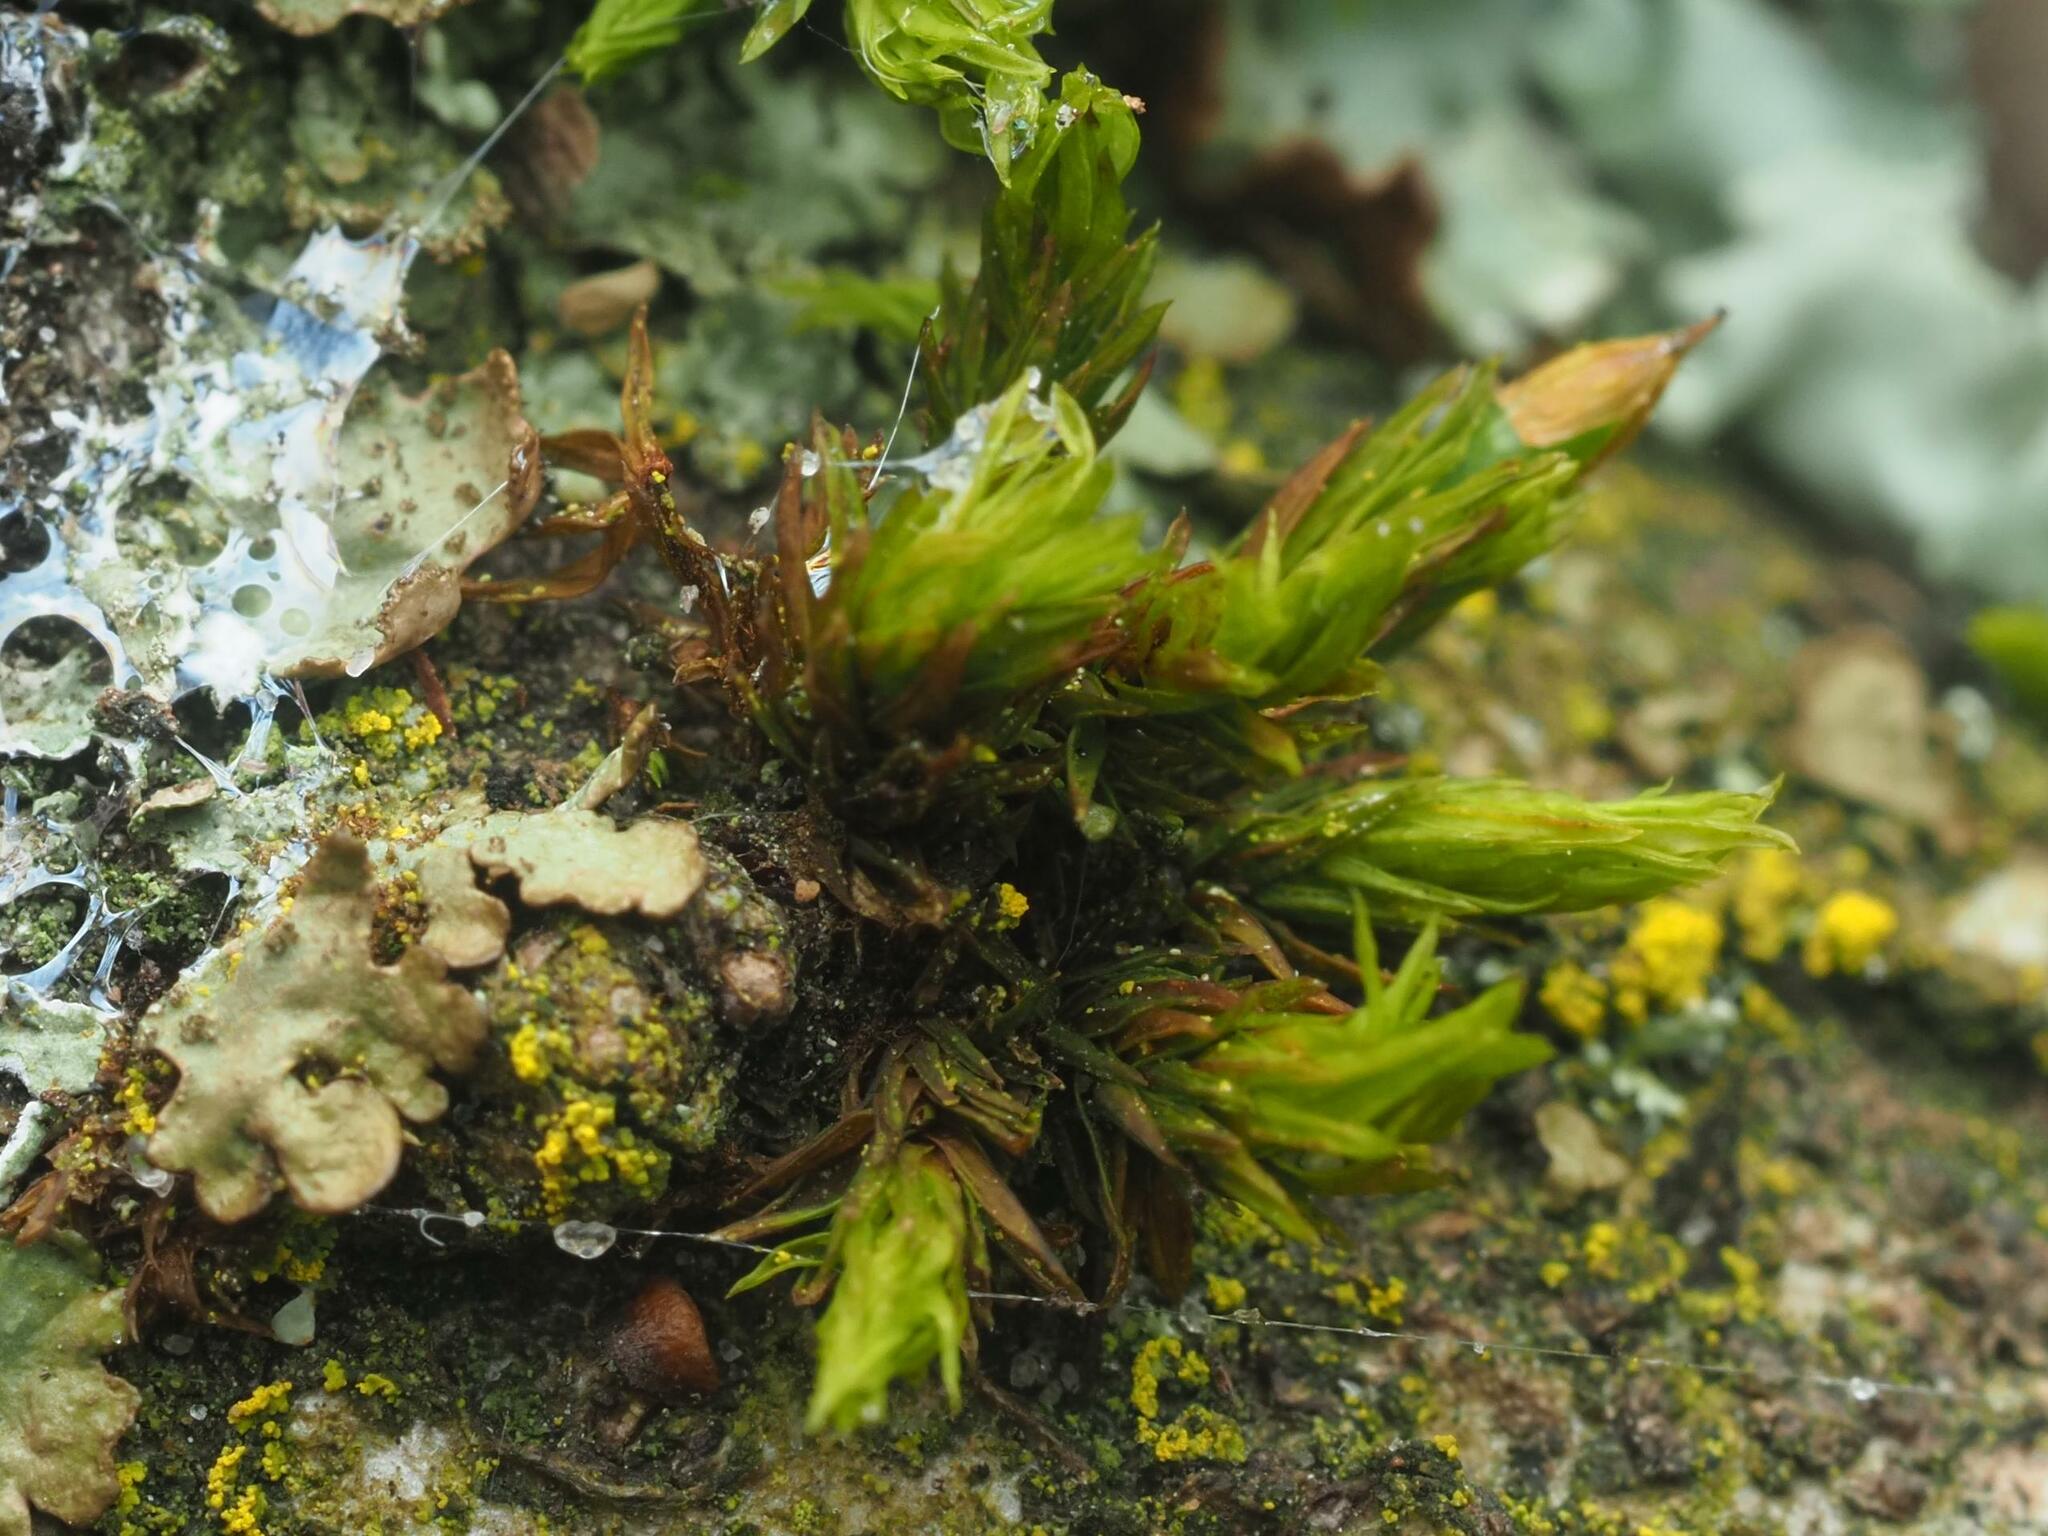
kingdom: Plantae
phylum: Bryophyta
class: Bryopsida
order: Orthotrichales
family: Orthotrichaceae
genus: Lewinskya
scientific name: Lewinskya affinis
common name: Wood bristle-moss
